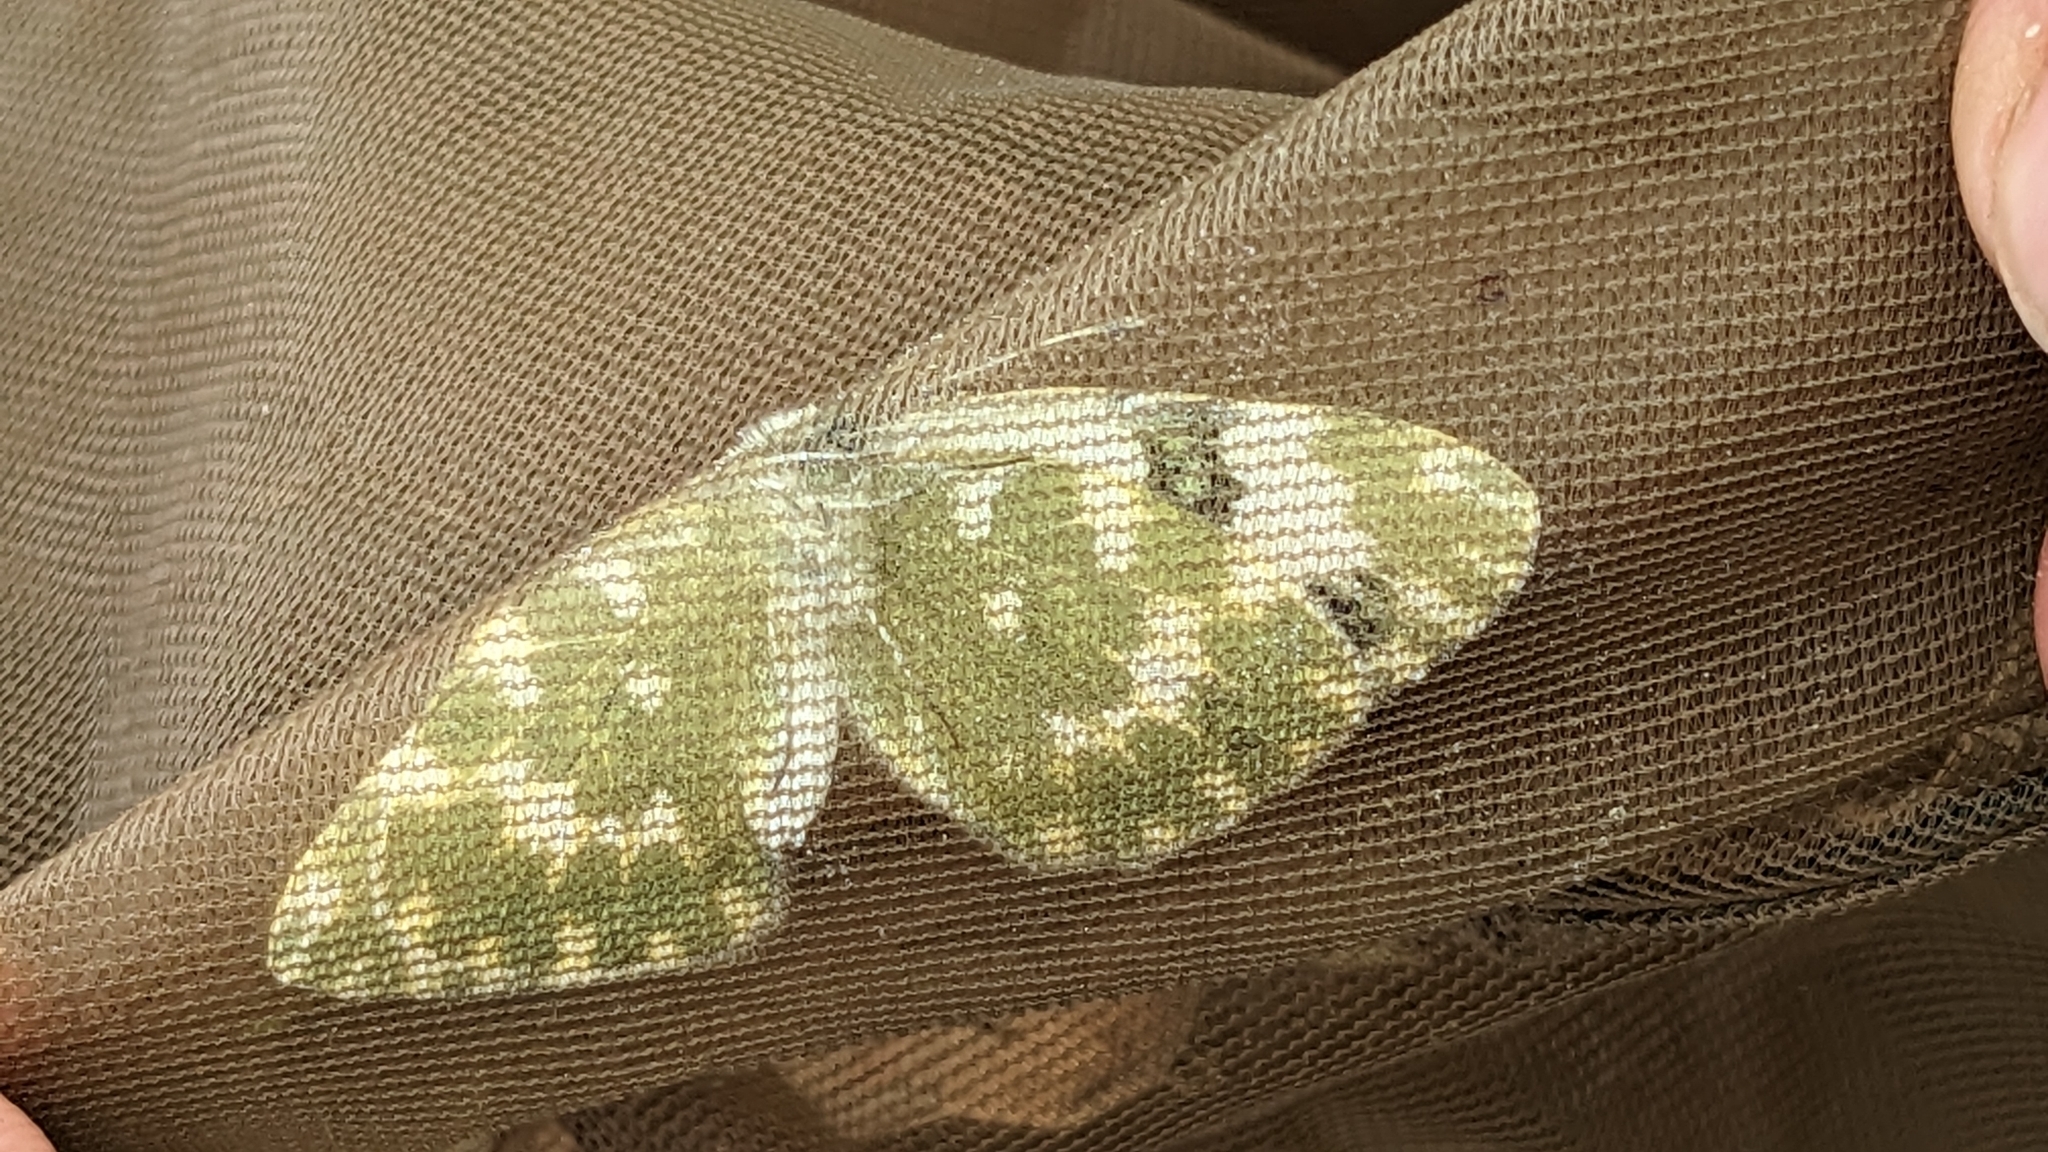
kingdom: Animalia
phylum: Arthropoda
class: Insecta
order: Lepidoptera
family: Pieridae
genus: Pontia
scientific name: Pontia daplidice
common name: Bath white
